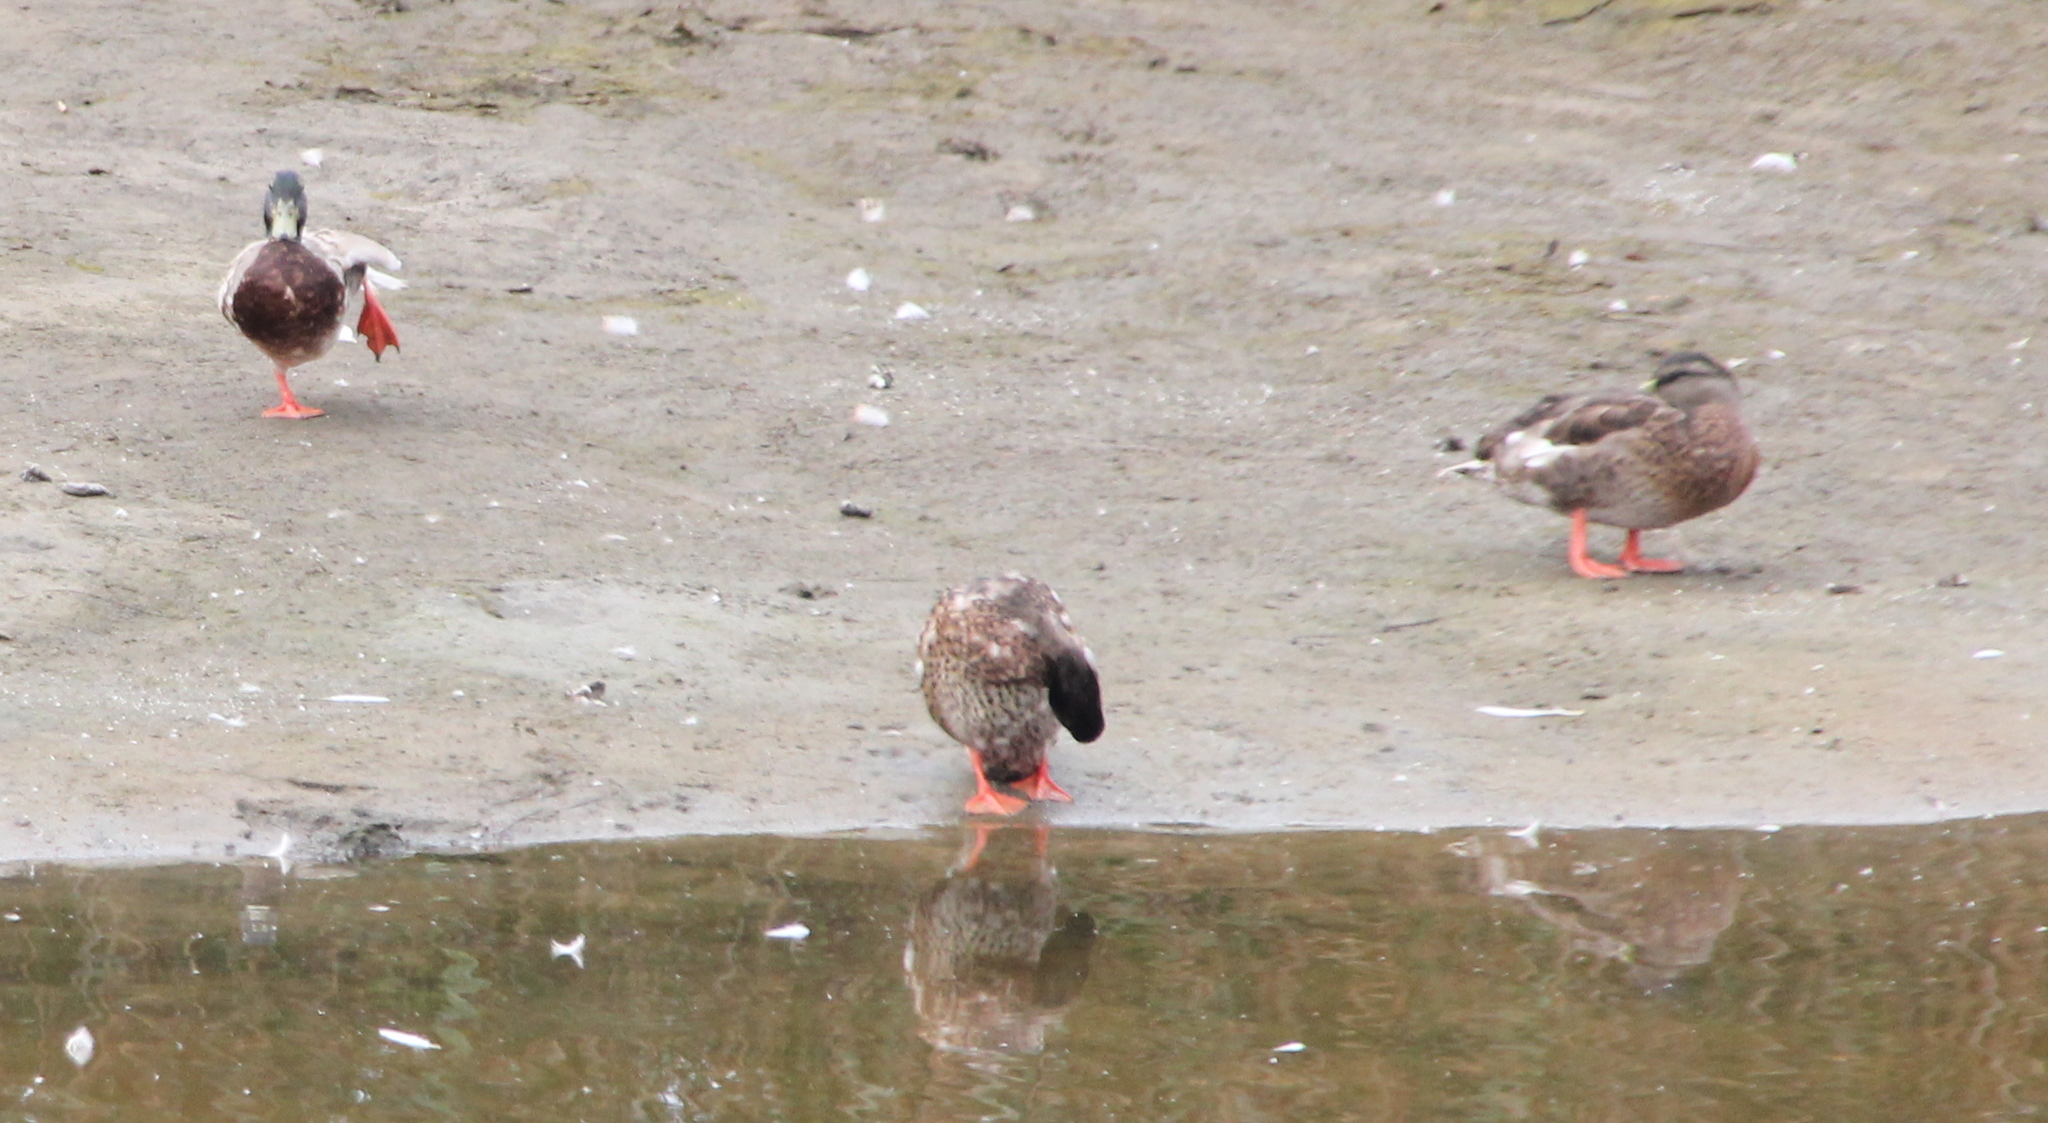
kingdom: Animalia
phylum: Chordata
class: Aves
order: Anseriformes
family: Anatidae
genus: Anas
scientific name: Anas platyrhynchos
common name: Mallard
